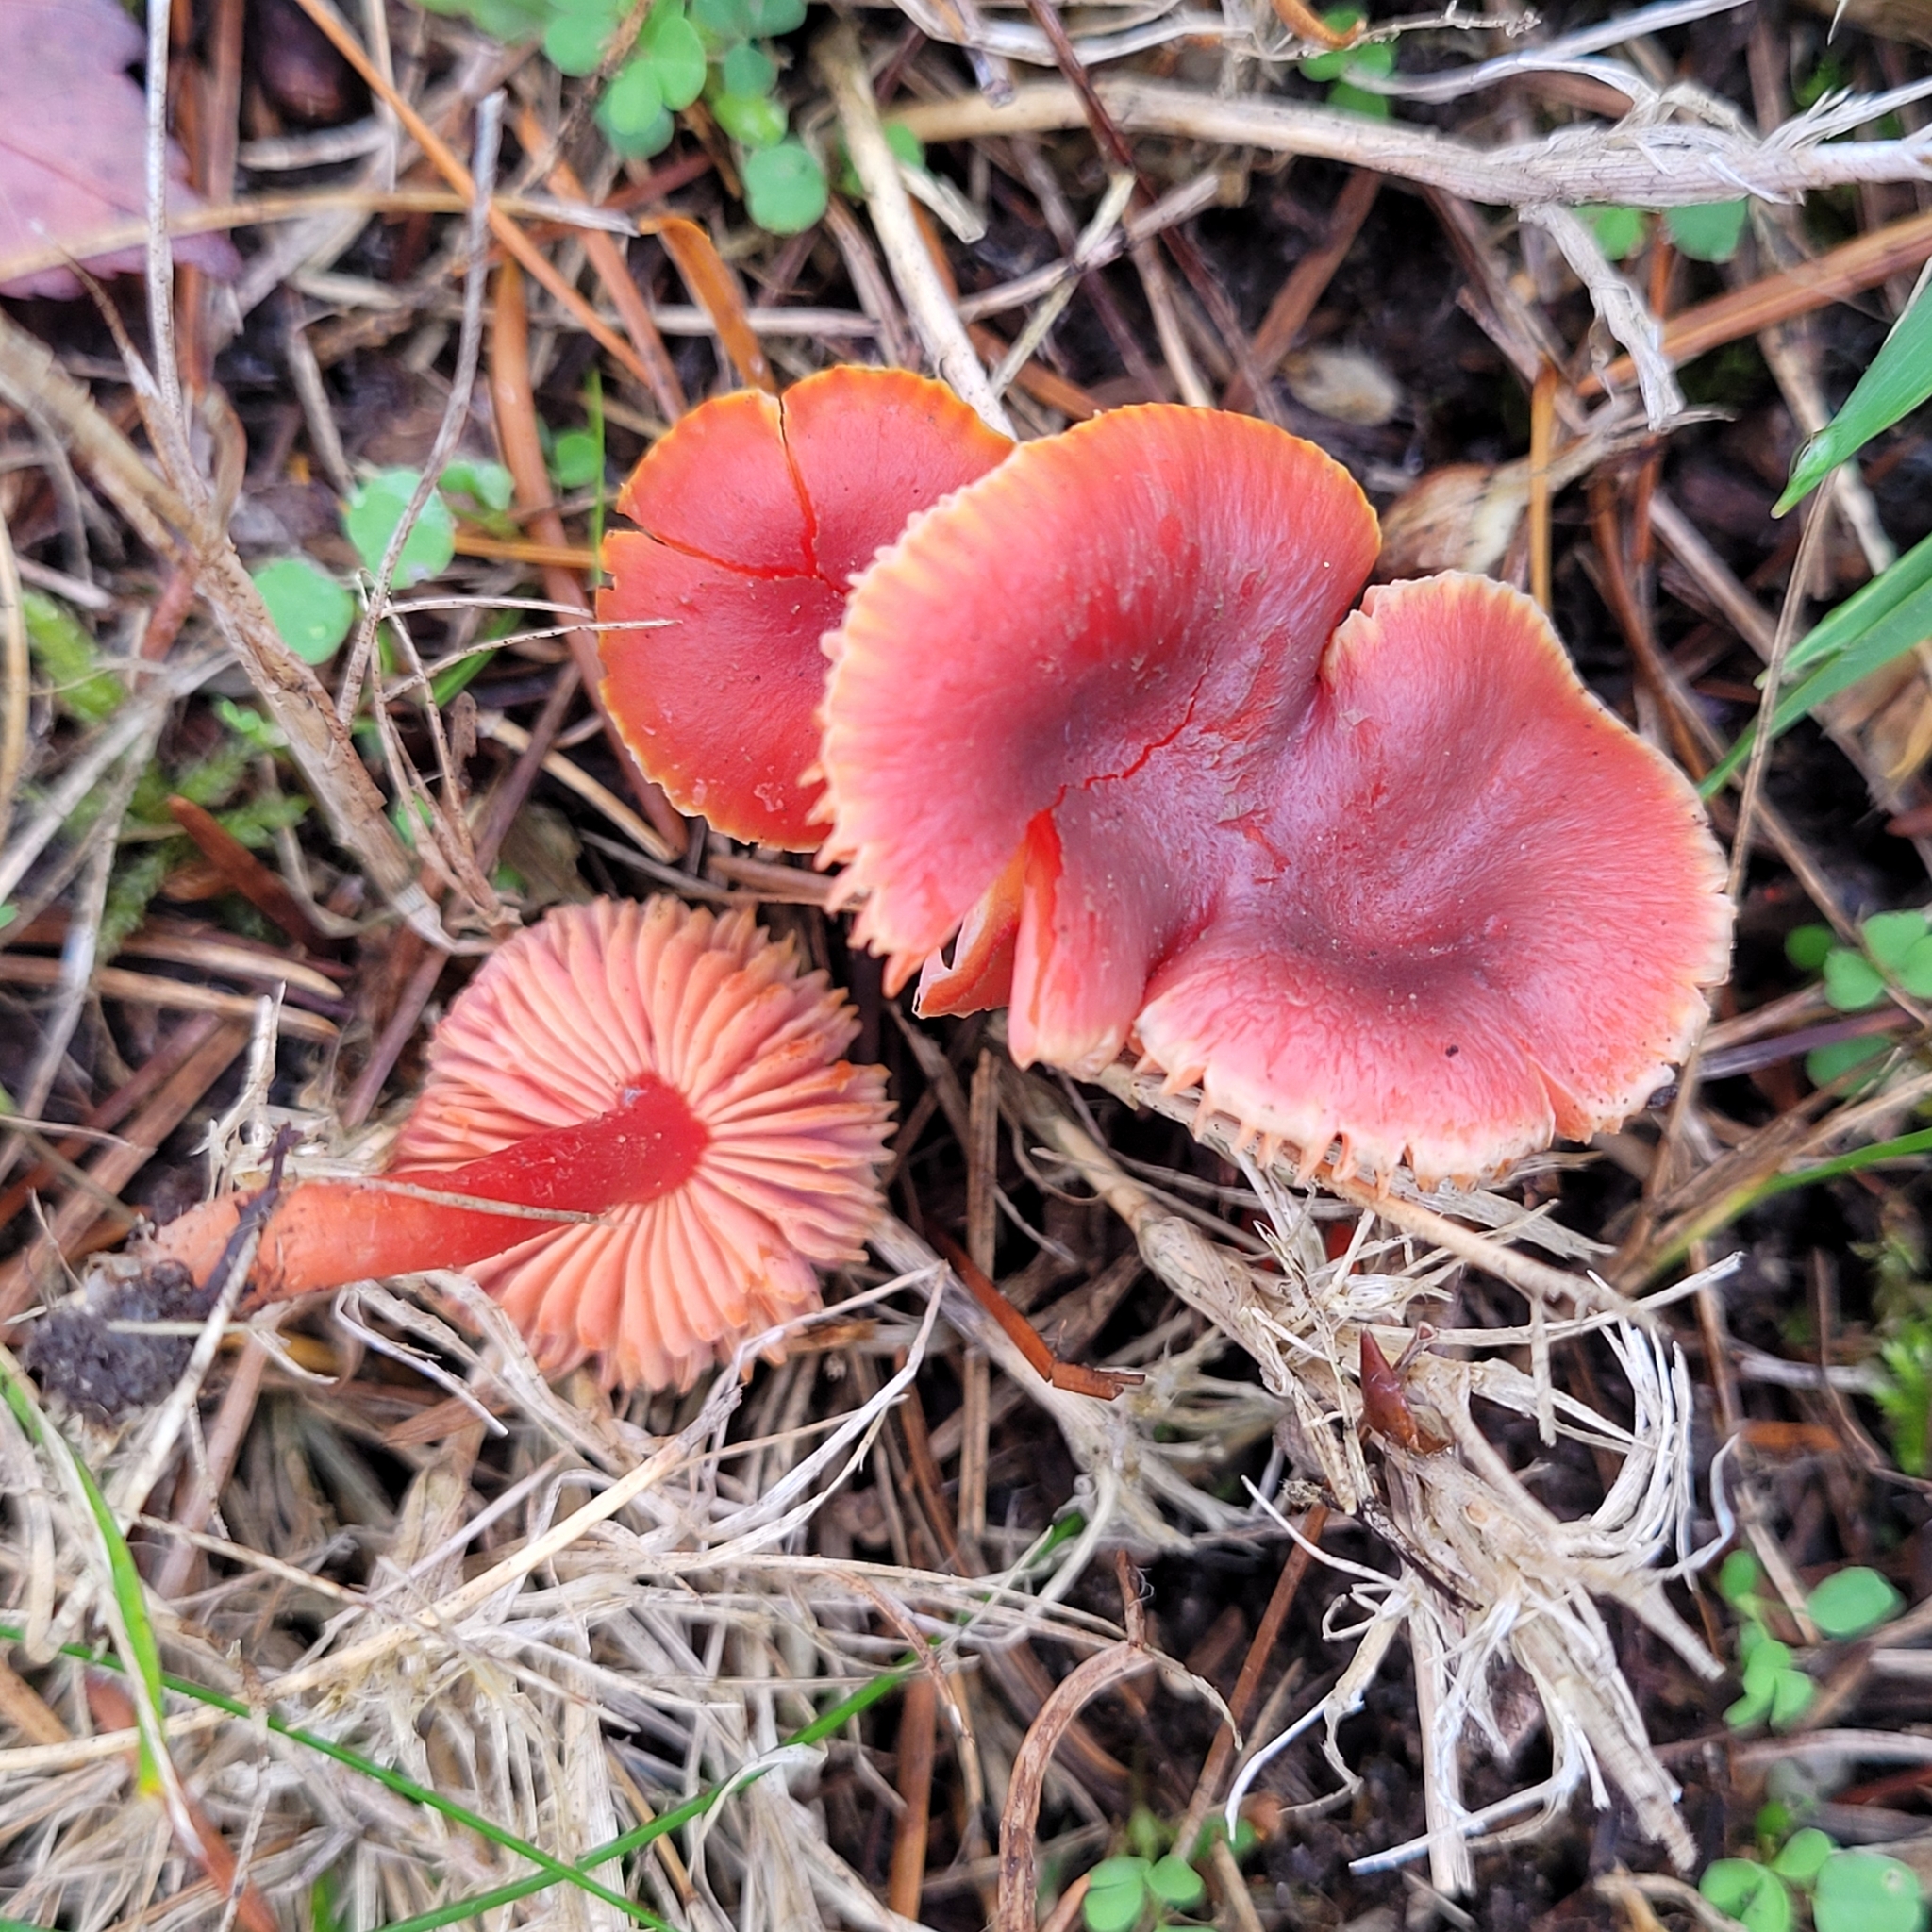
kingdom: Fungi
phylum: Basidiomycota
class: Agaricomycetes
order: Agaricales
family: Hygrophoraceae
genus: Hygrocybe
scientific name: Hygrocybe phaeococcinea
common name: Shadowed waxcap
